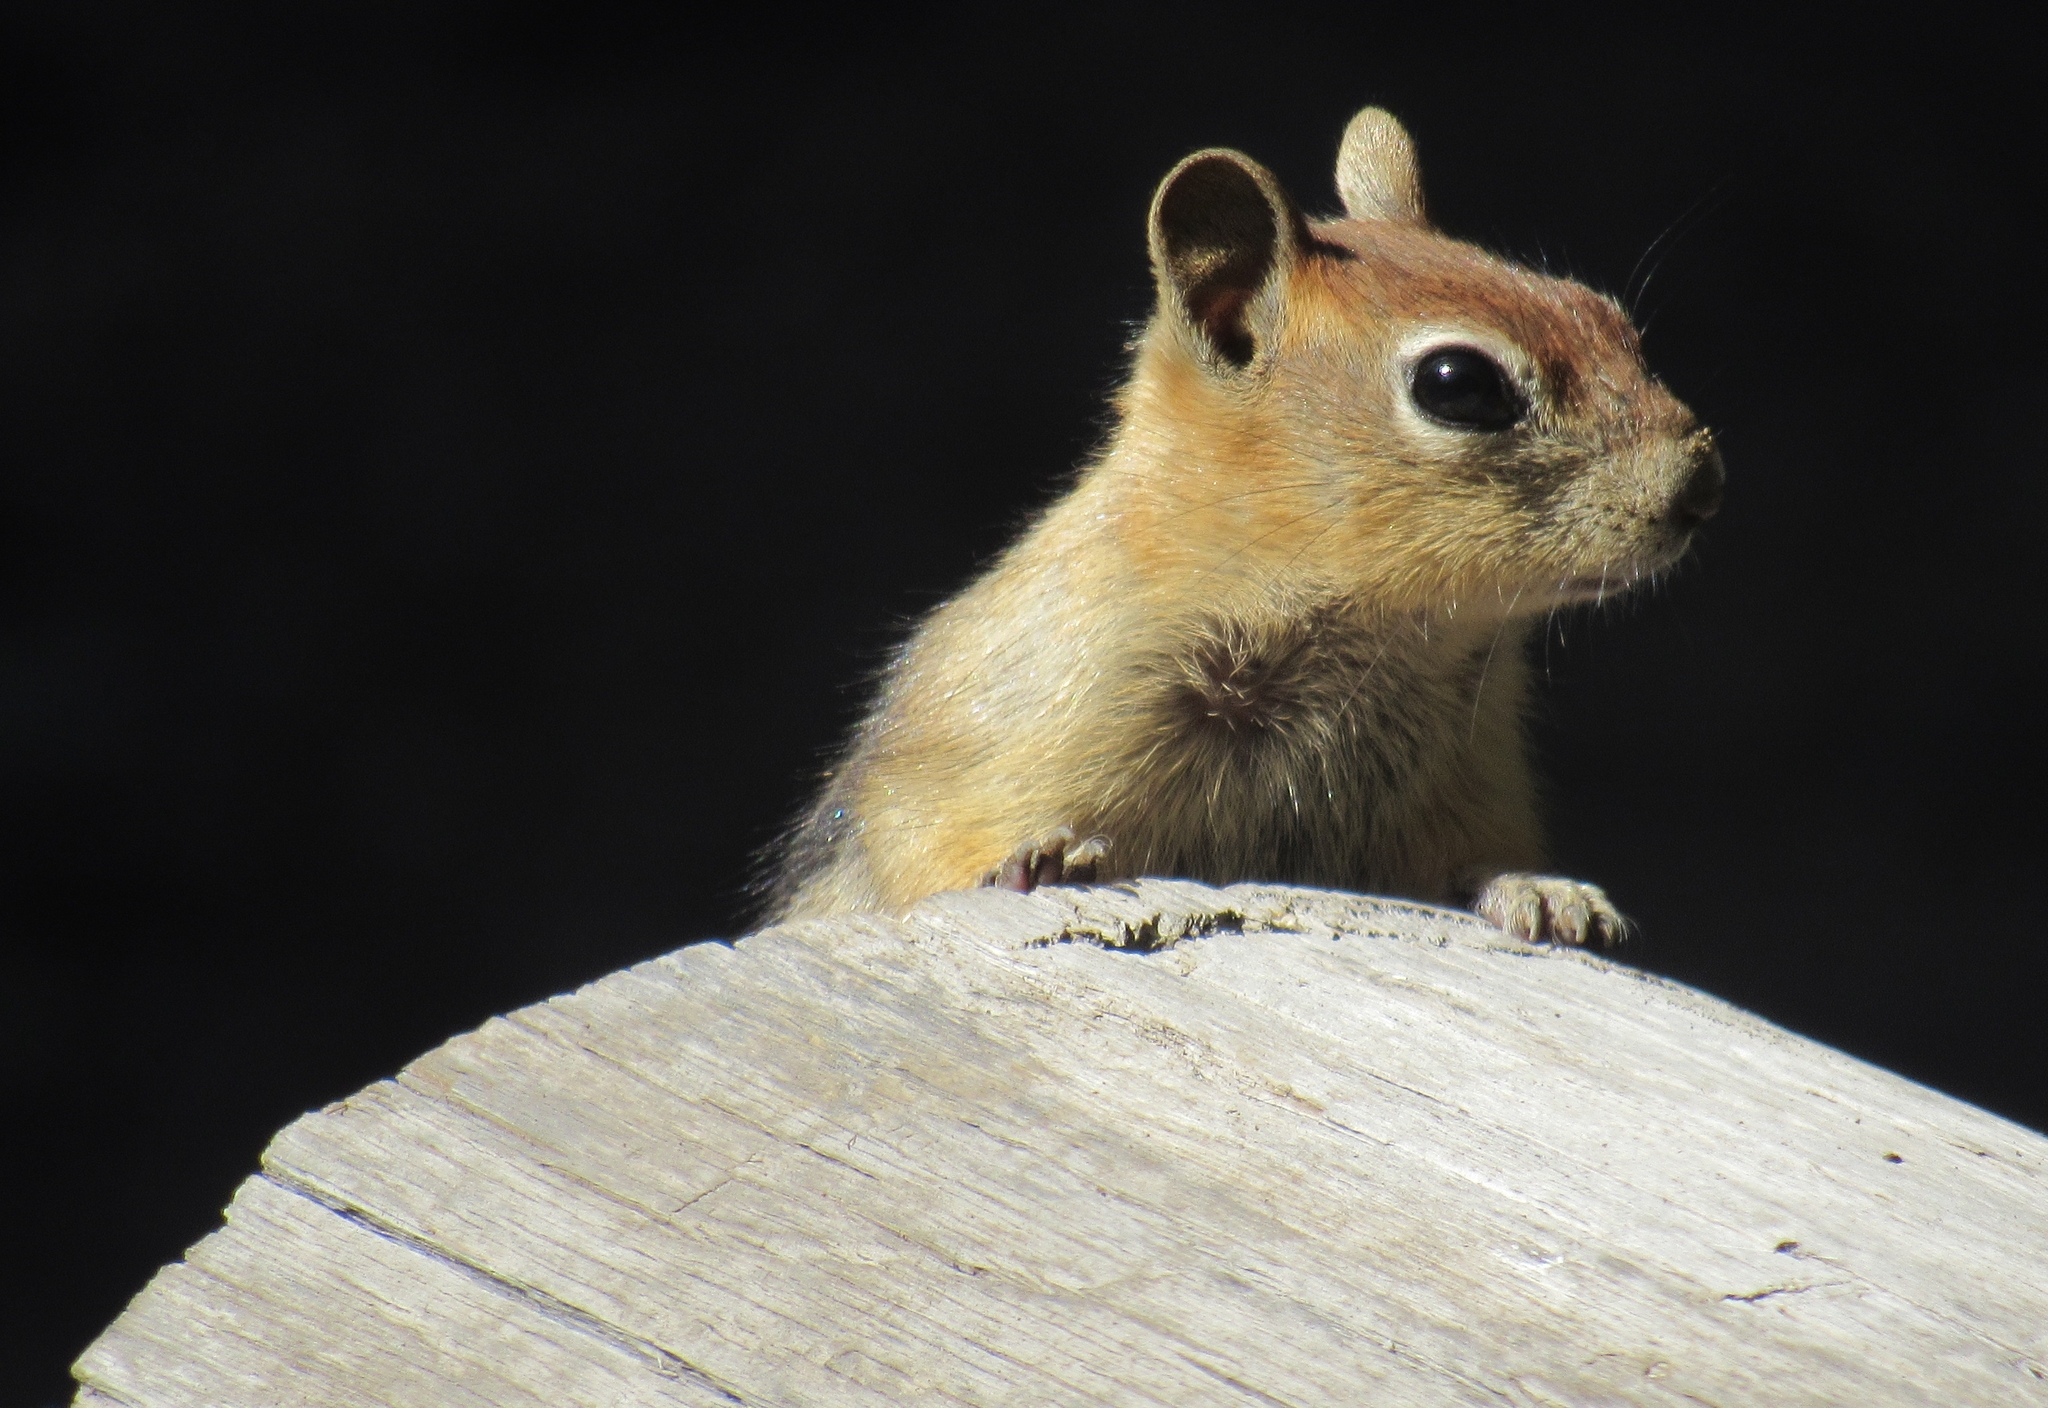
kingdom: Animalia
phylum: Chordata
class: Mammalia
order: Rodentia
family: Sciuridae
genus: Callospermophilus
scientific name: Callospermophilus lateralis
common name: Golden-mantled ground squirrel
